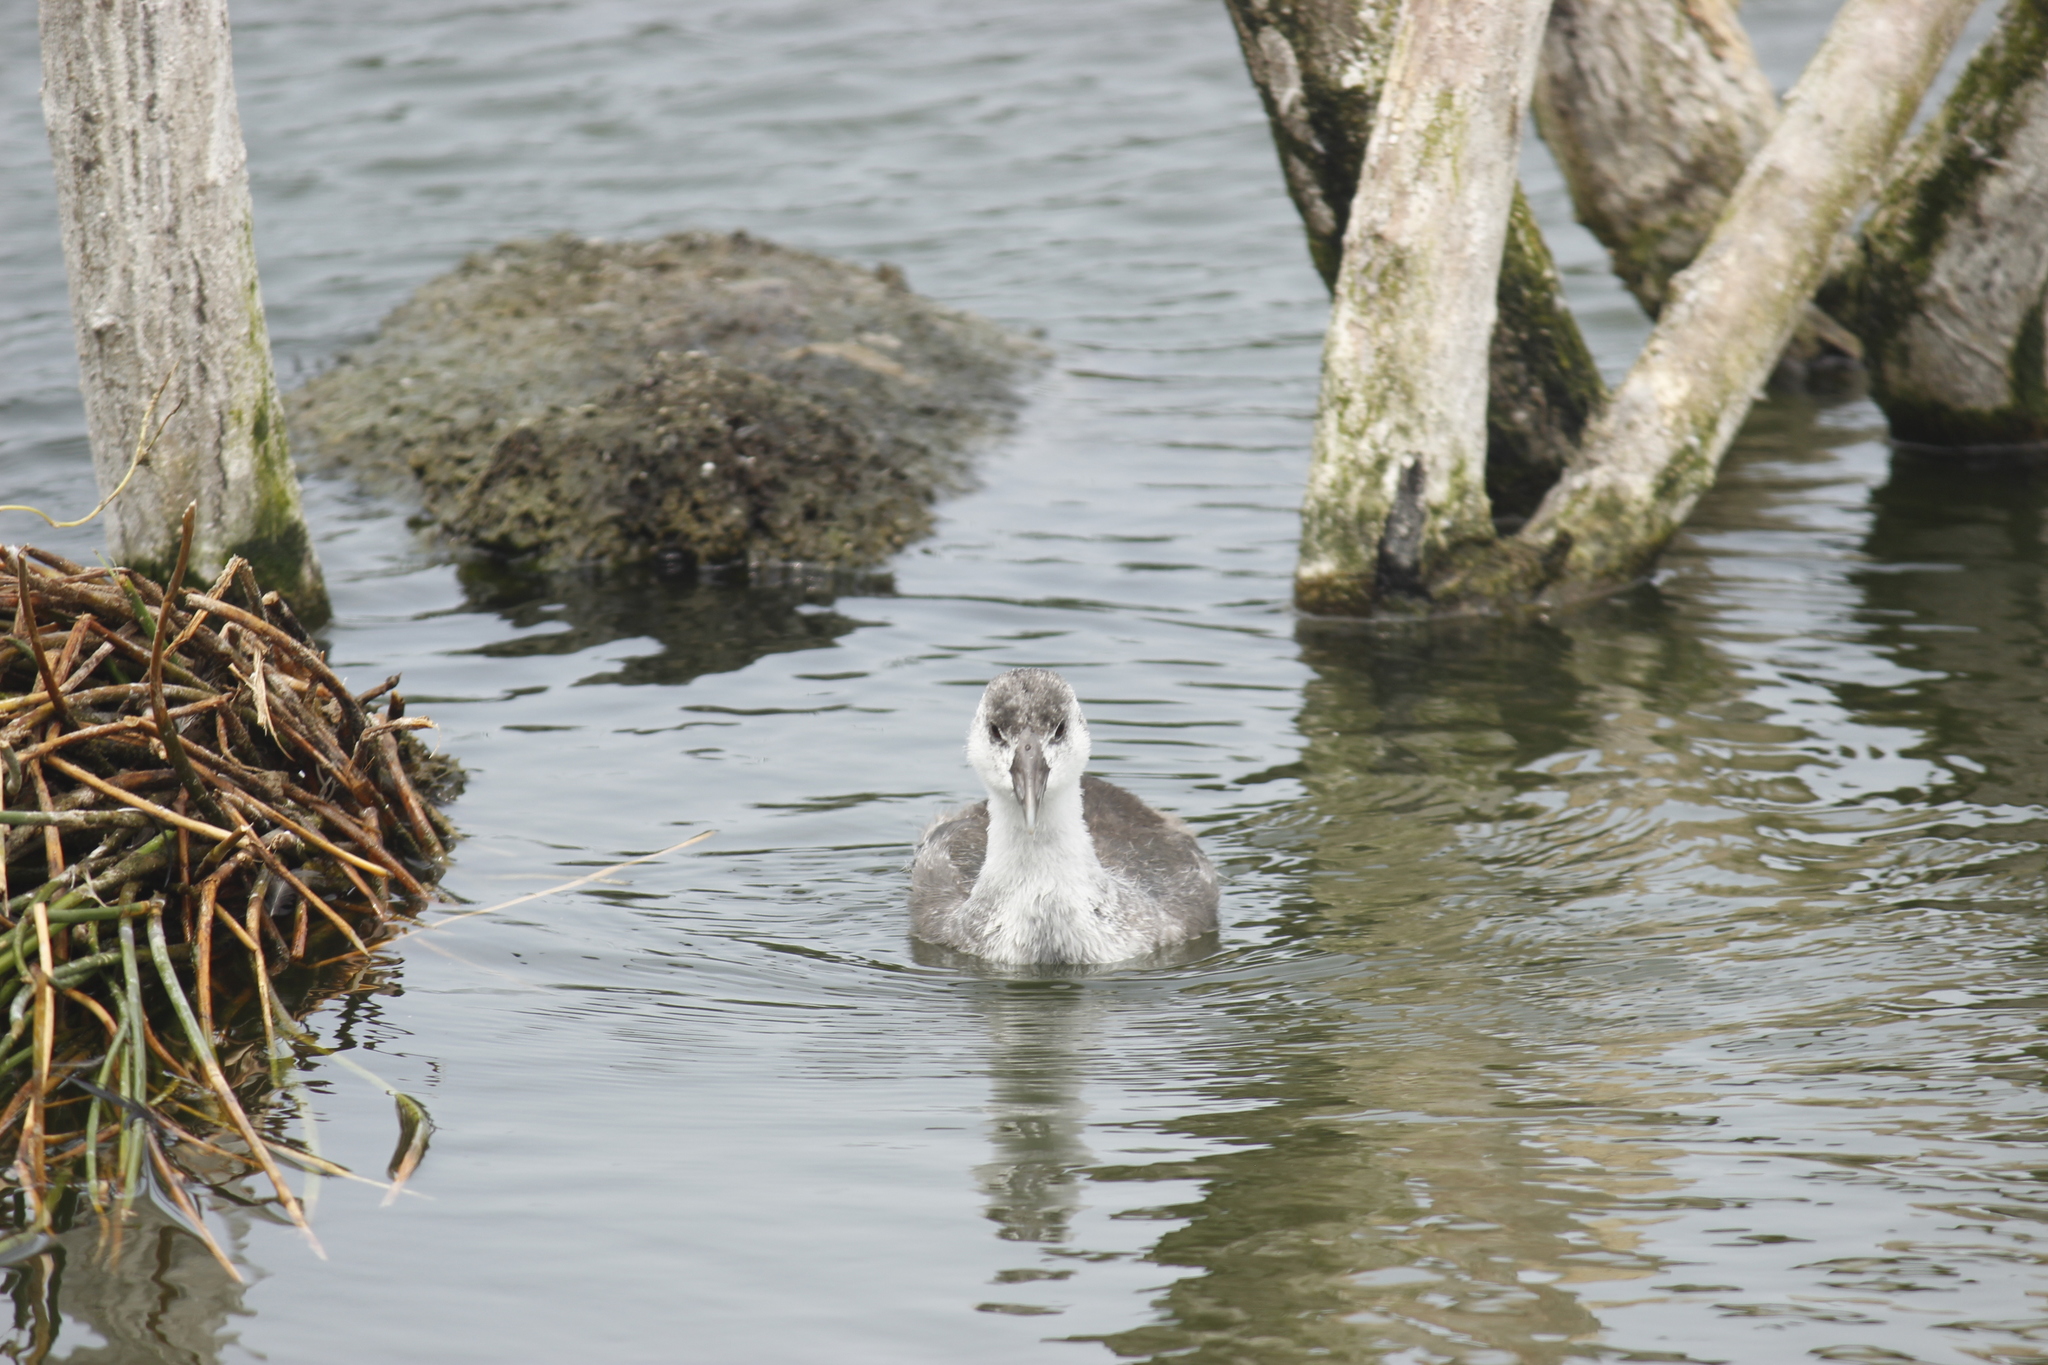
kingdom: Animalia
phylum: Chordata
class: Aves
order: Gruiformes
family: Rallidae
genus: Fulica
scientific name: Fulica ardesiaca
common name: Andean coot
